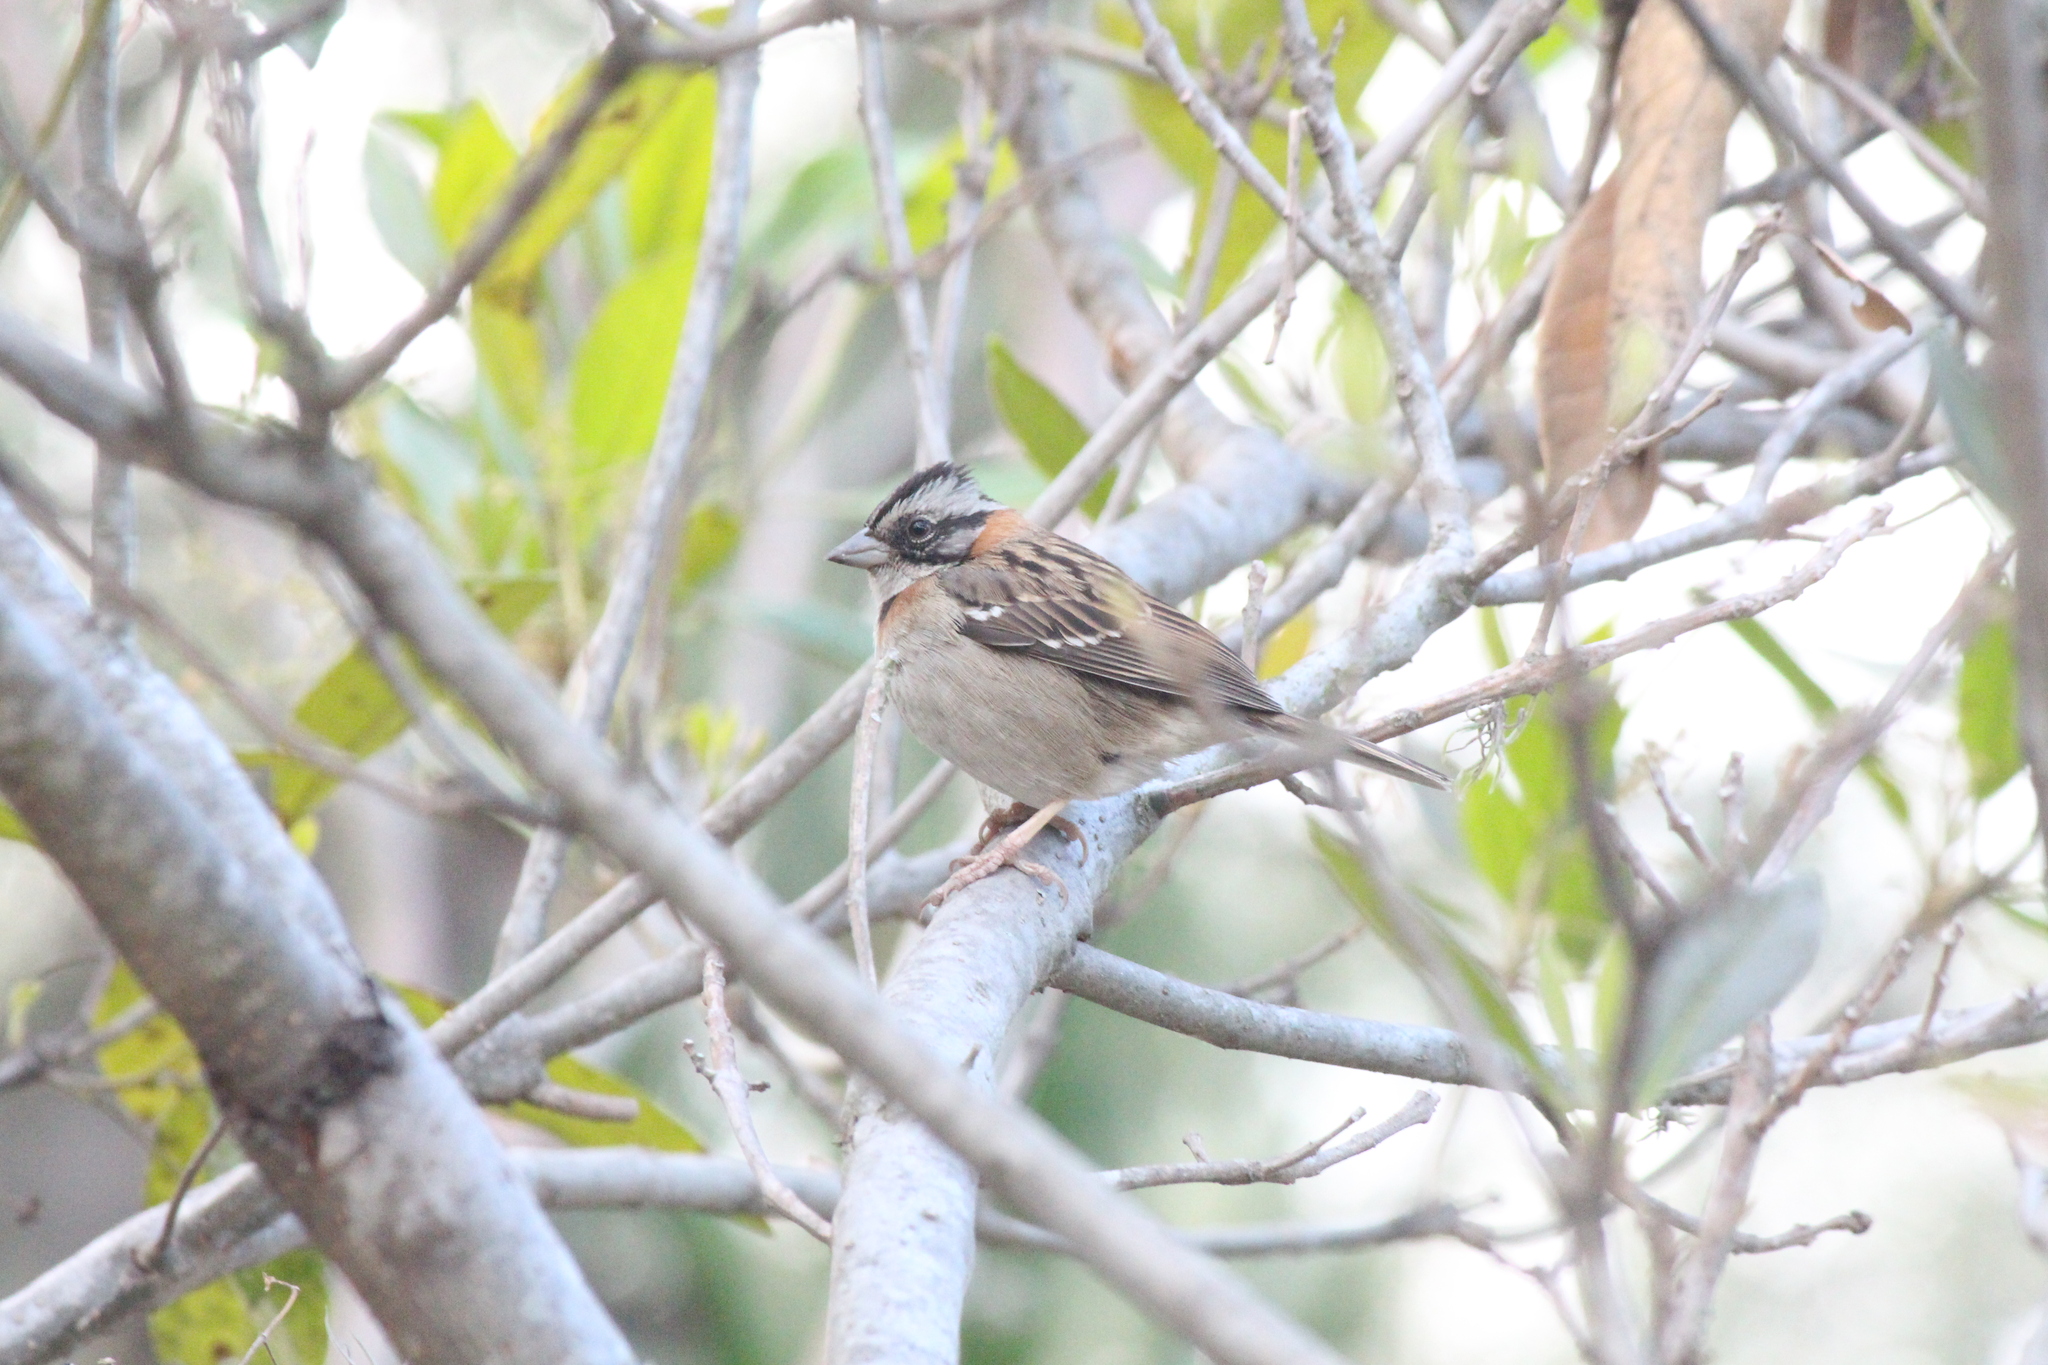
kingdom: Animalia
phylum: Chordata
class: Aves
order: Passeriformes
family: Passerellidae
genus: Zonotrichia
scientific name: Zonotrichia capensis
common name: Rufous-collared sparrow
